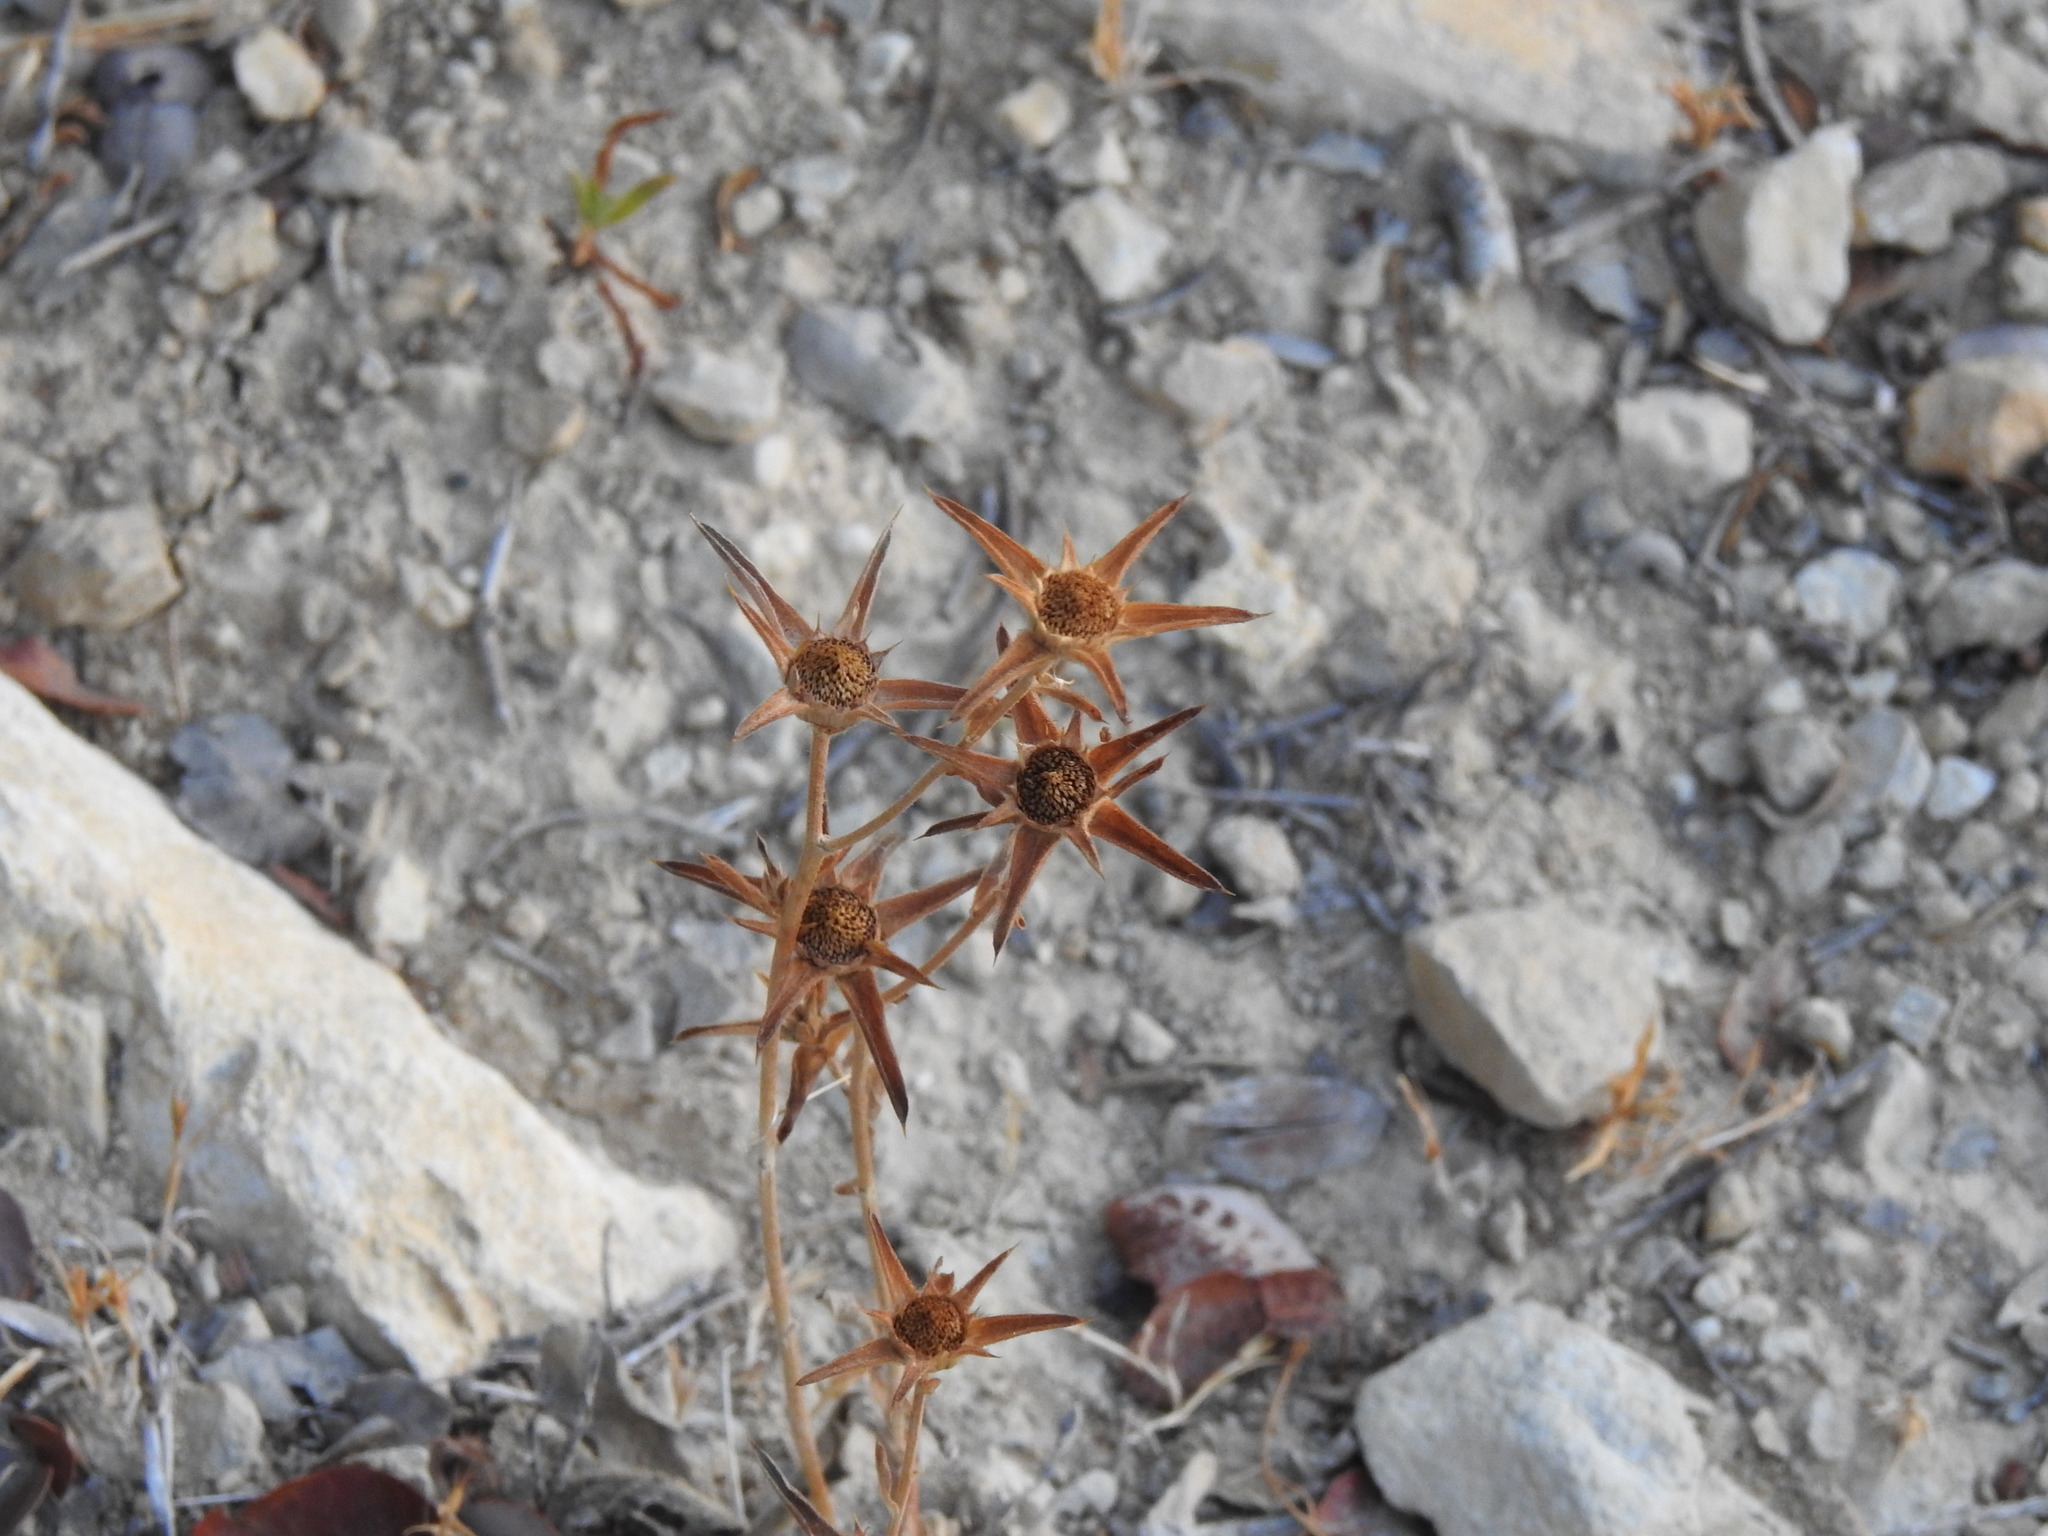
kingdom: Plantae
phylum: Tracheophyta
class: Magnoliopsida
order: Asterales
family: Asteraceae
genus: Pallenis
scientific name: Pallenis spinosa
